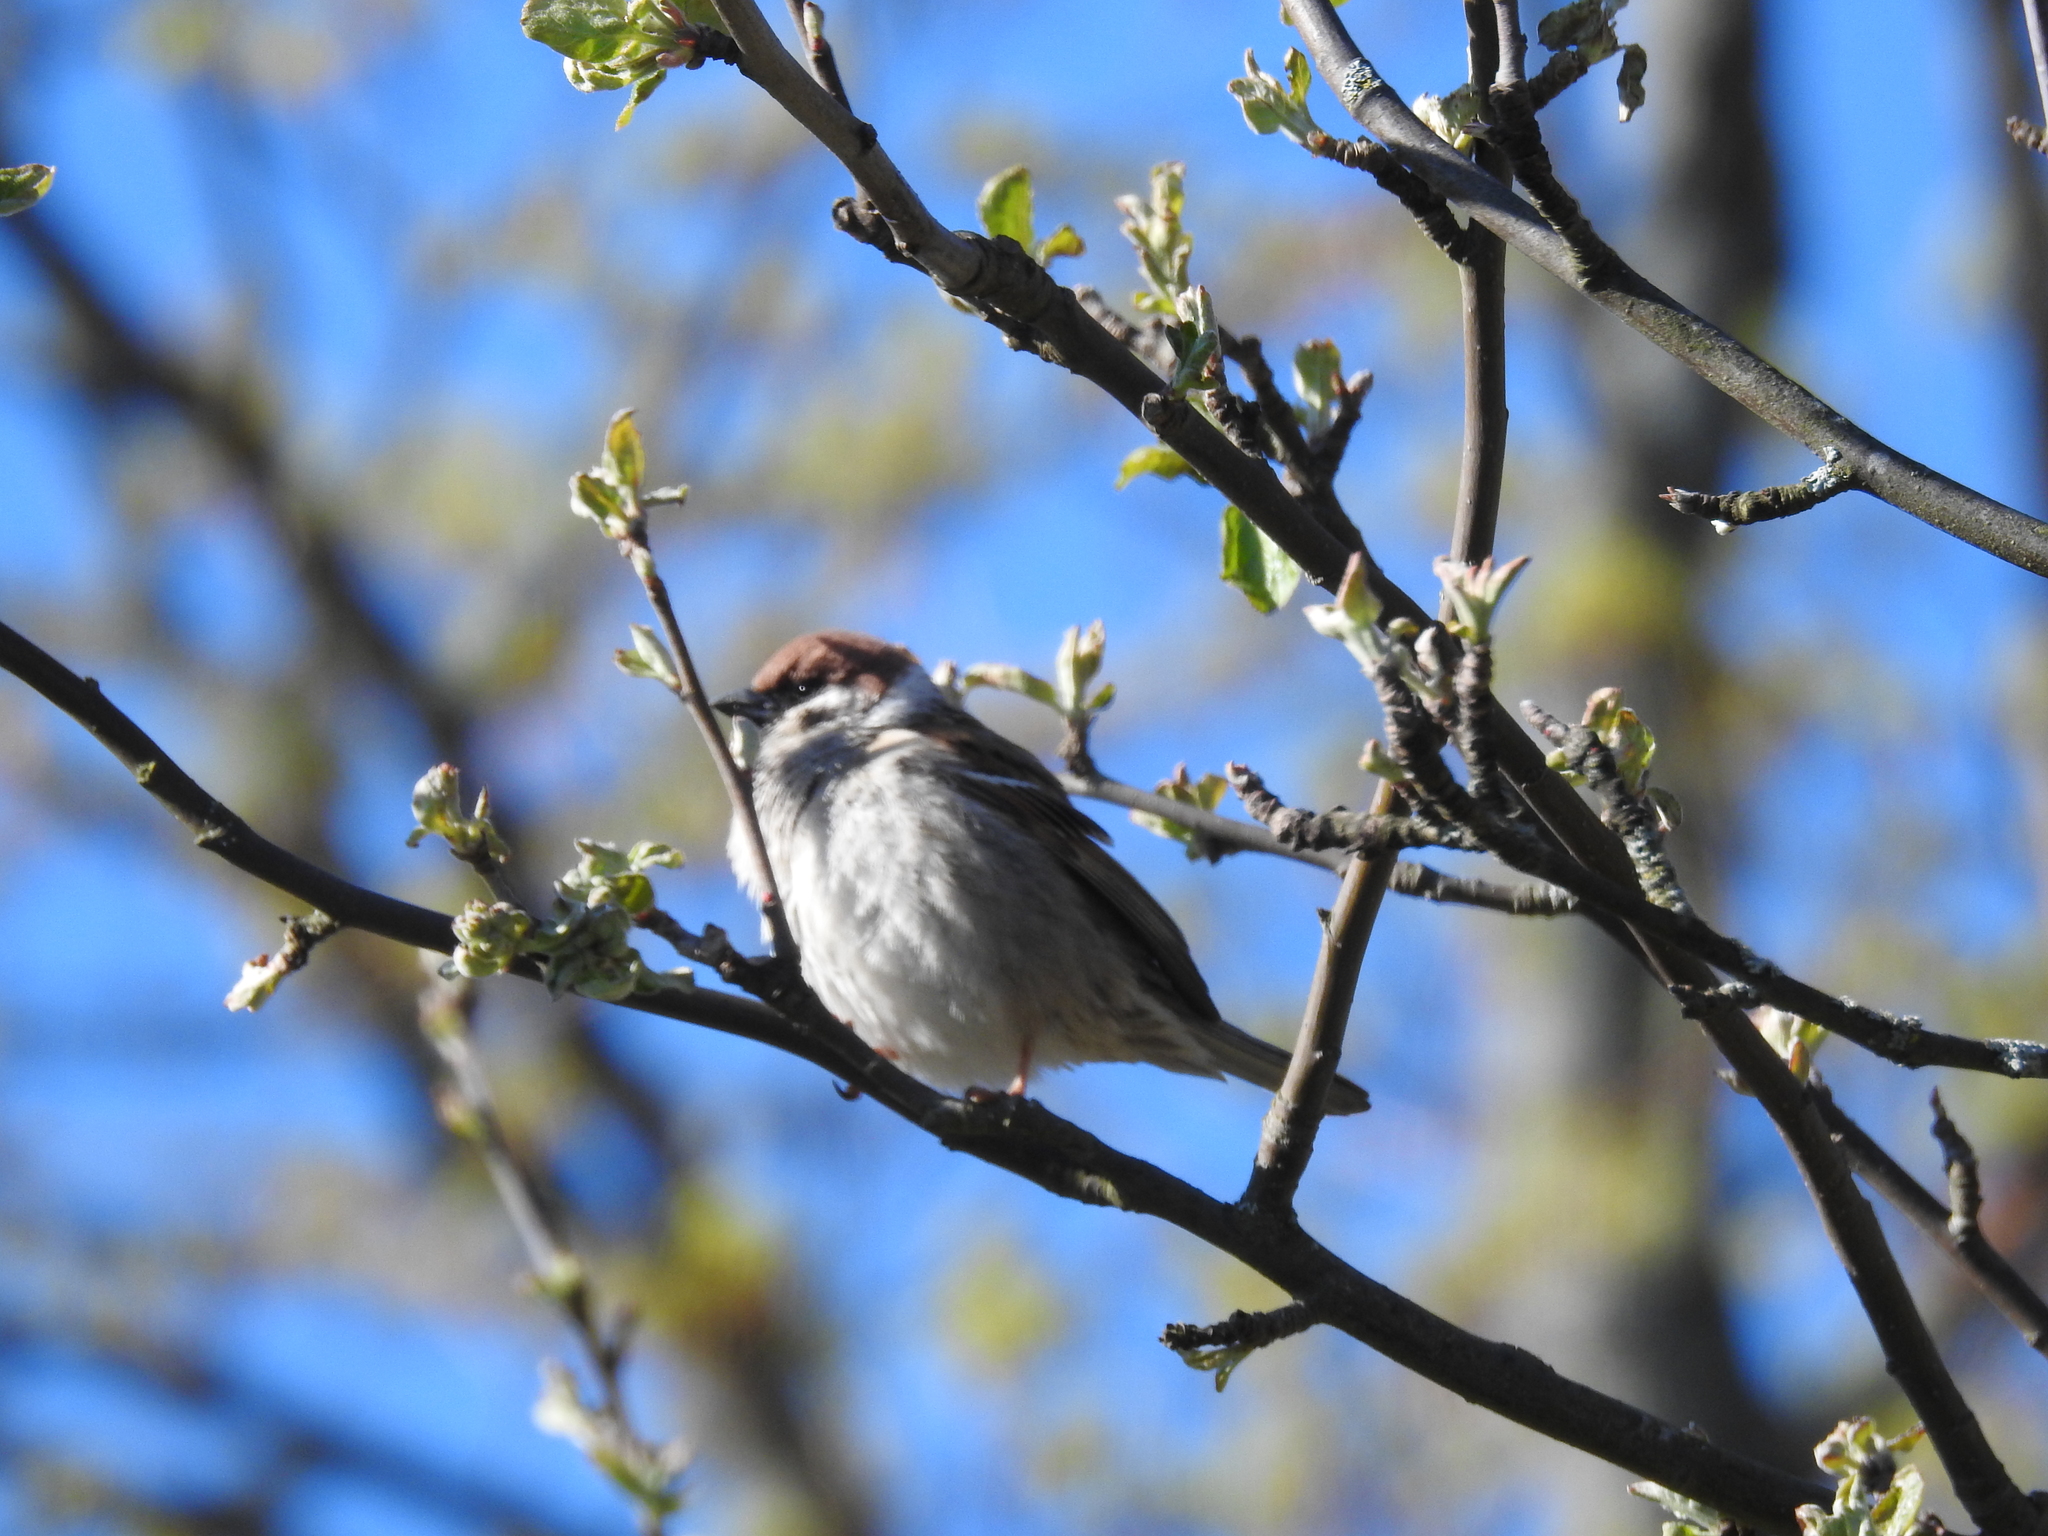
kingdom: Animalia
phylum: Chordata
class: Aves
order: Passeriformes
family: Passeridae
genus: Passer
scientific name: Passer montanus
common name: Eurasian tree sparrow
